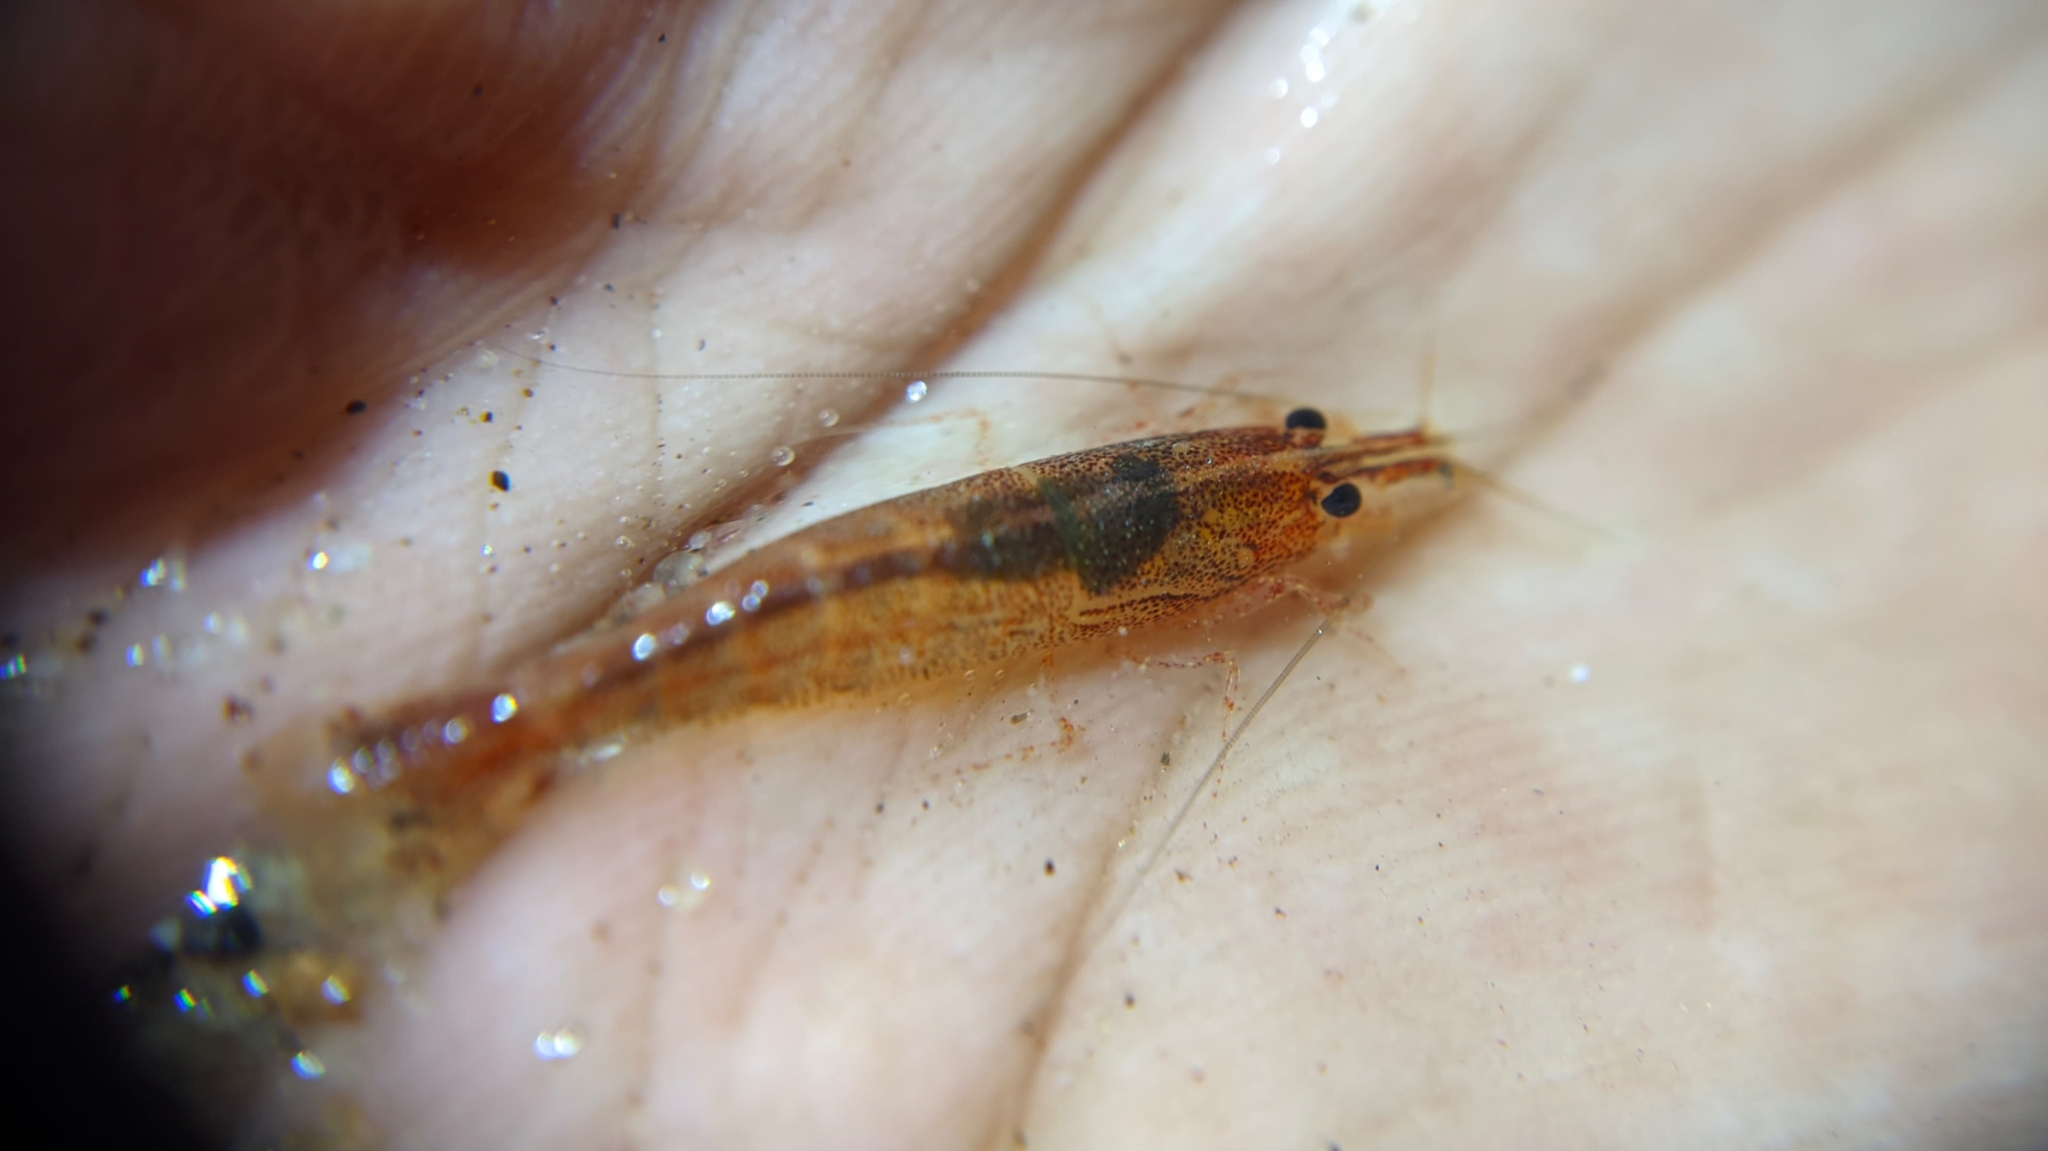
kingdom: Animalia
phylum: Arthropoda
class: Malacostraca
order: Decapoda
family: Atyidae
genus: Caridina
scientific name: Caridina fernandoi
